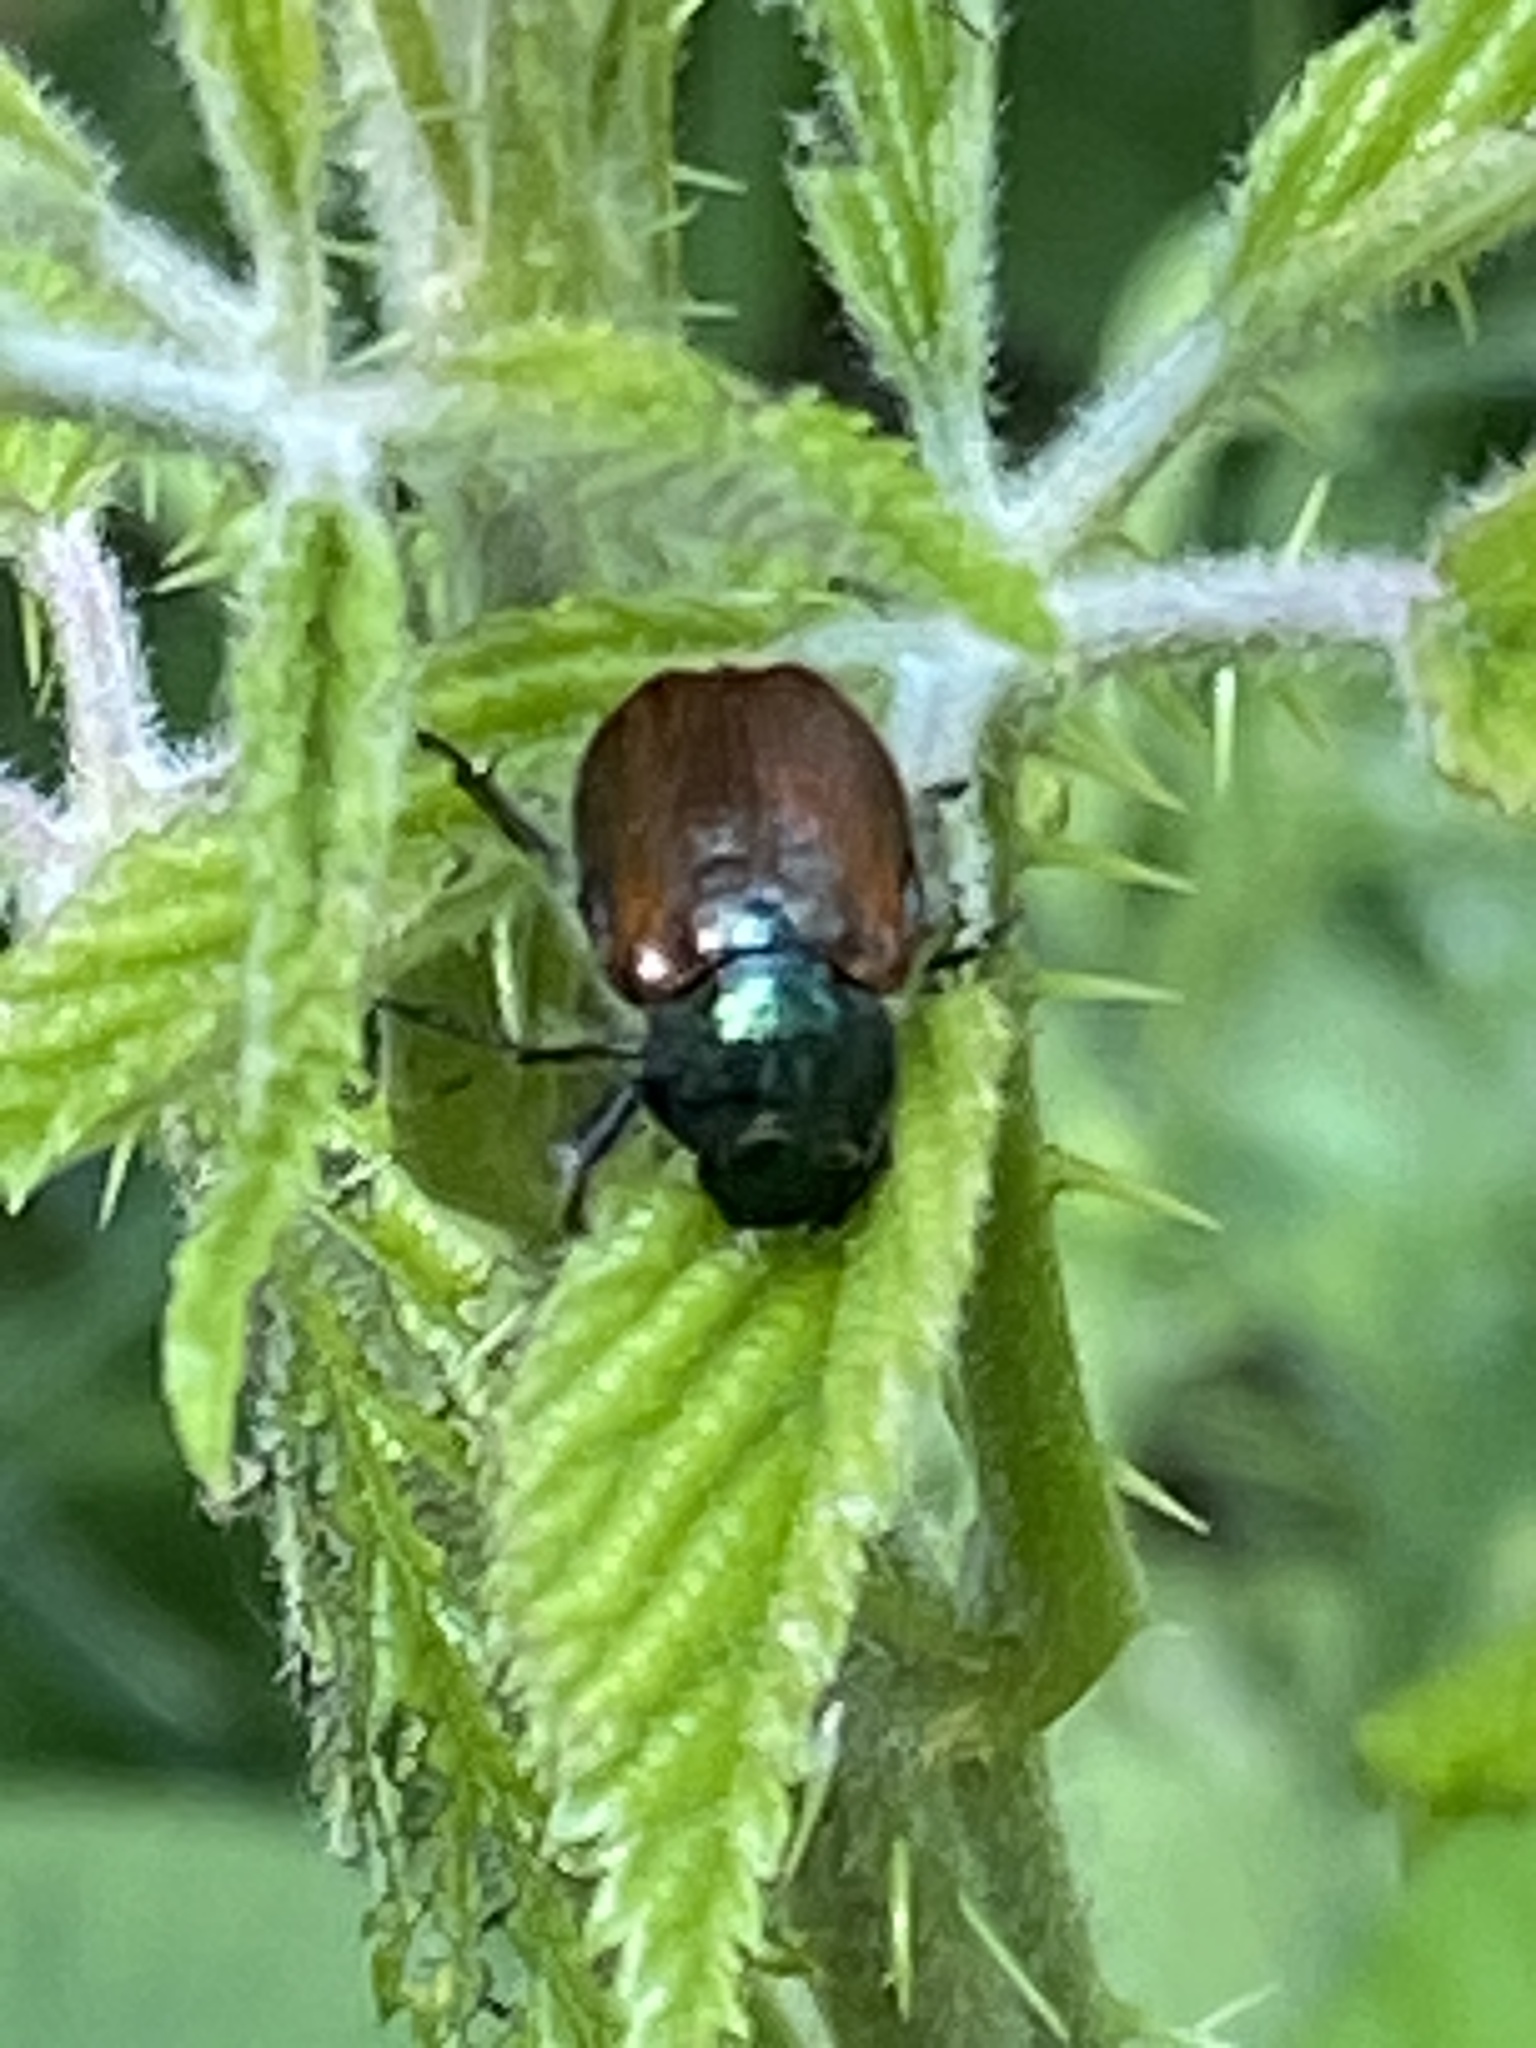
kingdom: Animalia
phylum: Arthropoda
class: Insecta
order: Coleoptera
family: Scarabaeidae
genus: Phyllopertha
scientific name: Phyllopertha horticola
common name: Garden chafer
